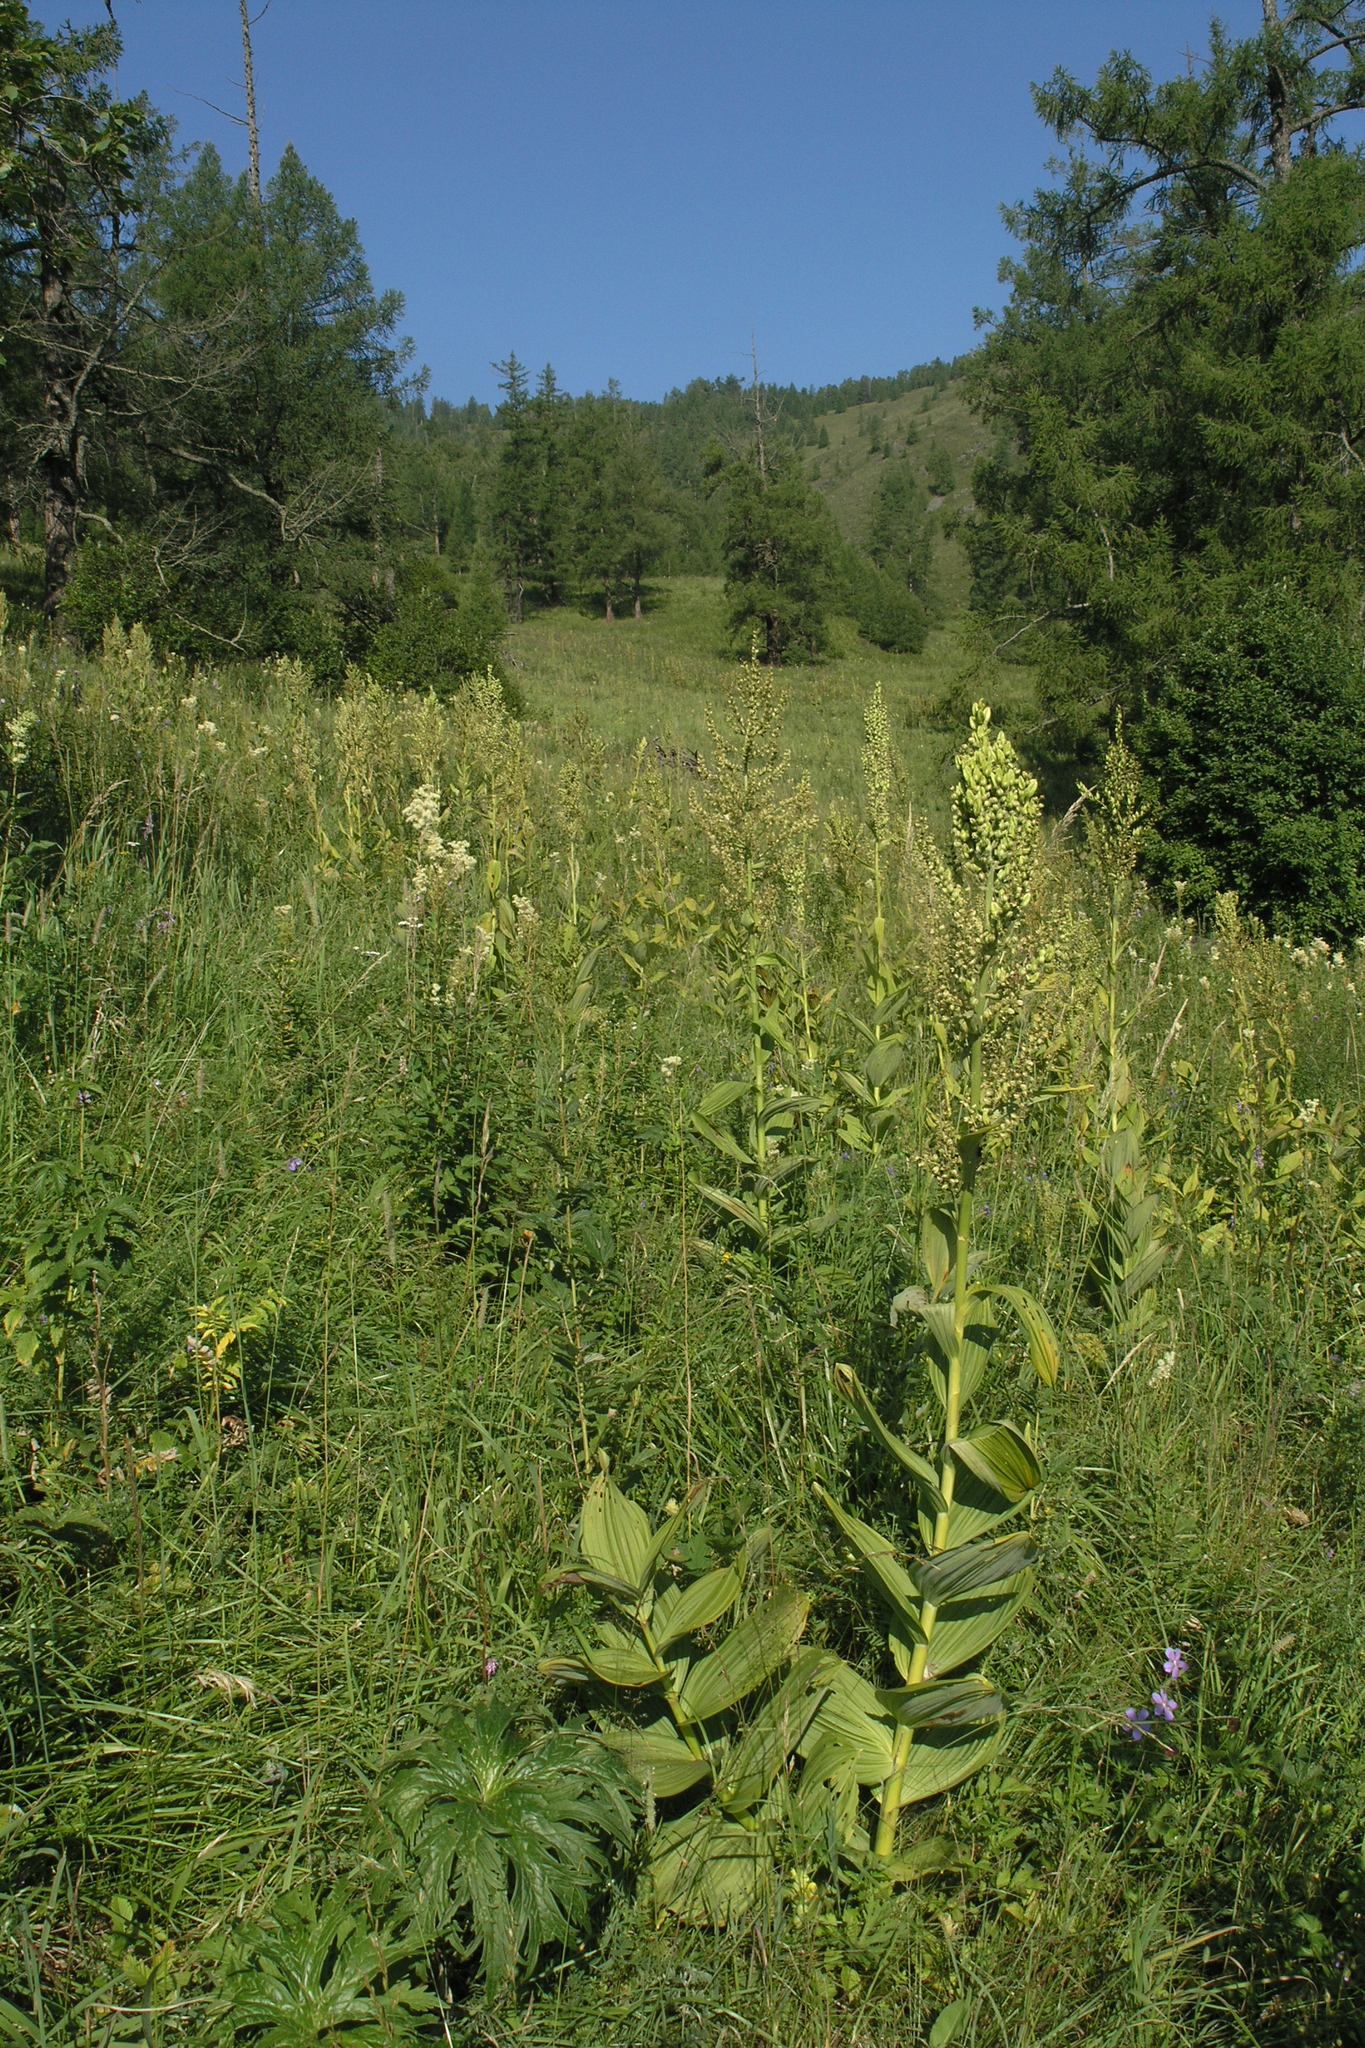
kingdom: Plantae
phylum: Tracheophyta
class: Liliopsida
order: Liliales
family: Melanthiaceae
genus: Veratrum
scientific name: Veratrum lobelianum
